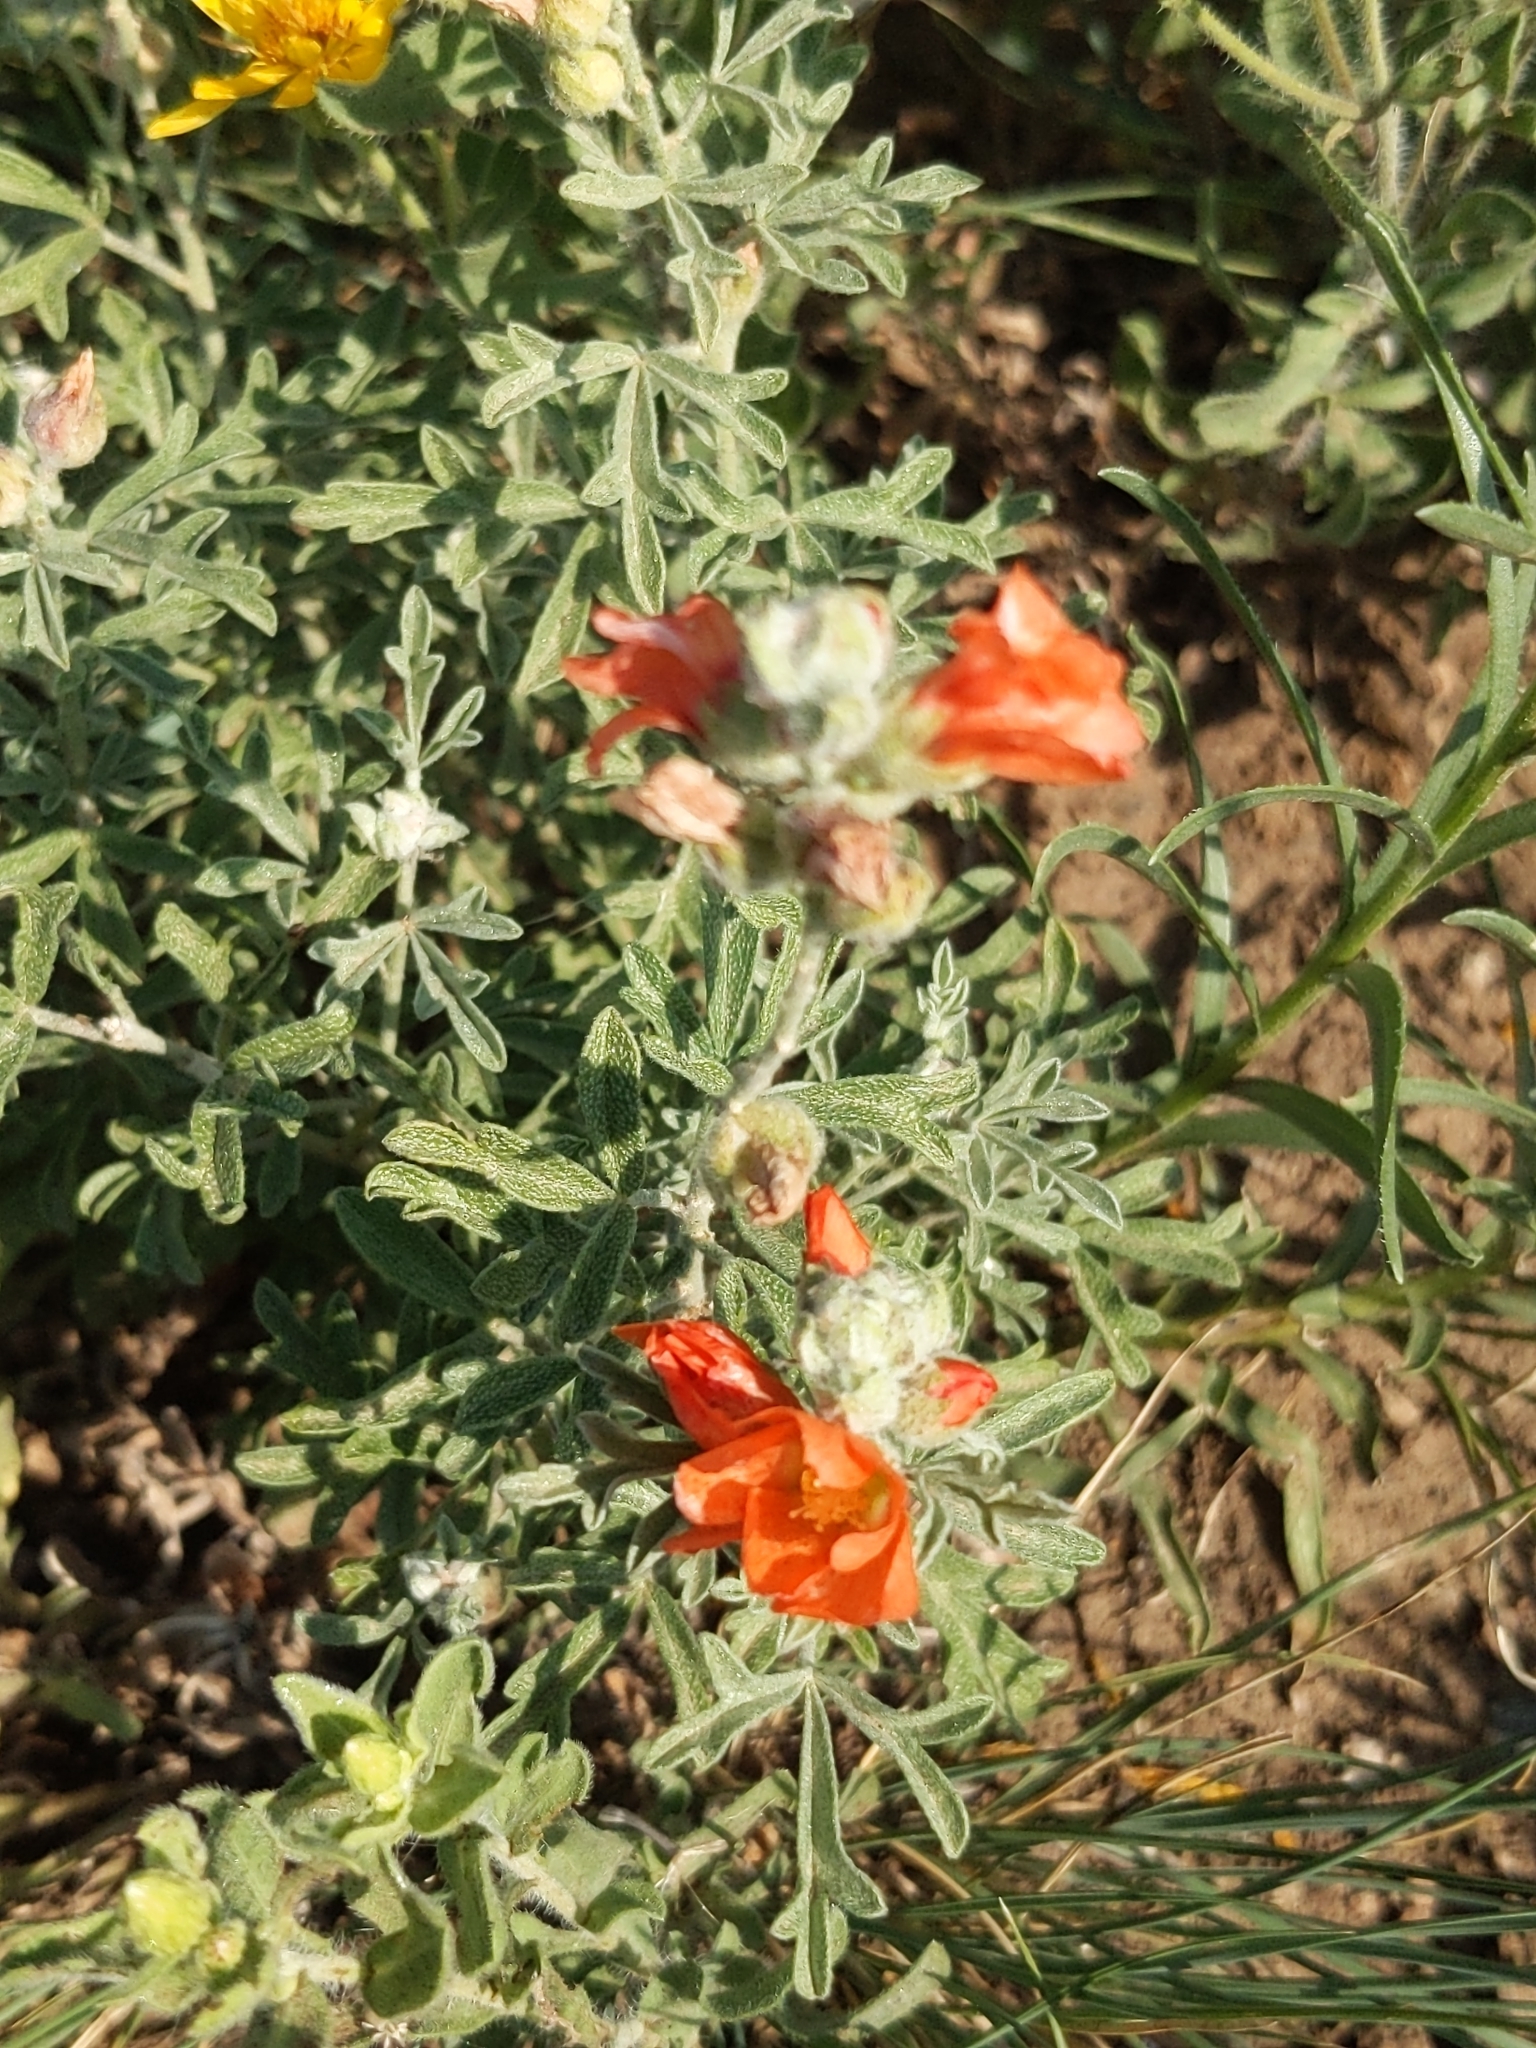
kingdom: Plantae
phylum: Tracheophyta
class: Magnoliopsida
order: Malvales
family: Malvaceae
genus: Sphaeralcea
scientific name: Sphaeralcea coccinea
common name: Moss-rose
